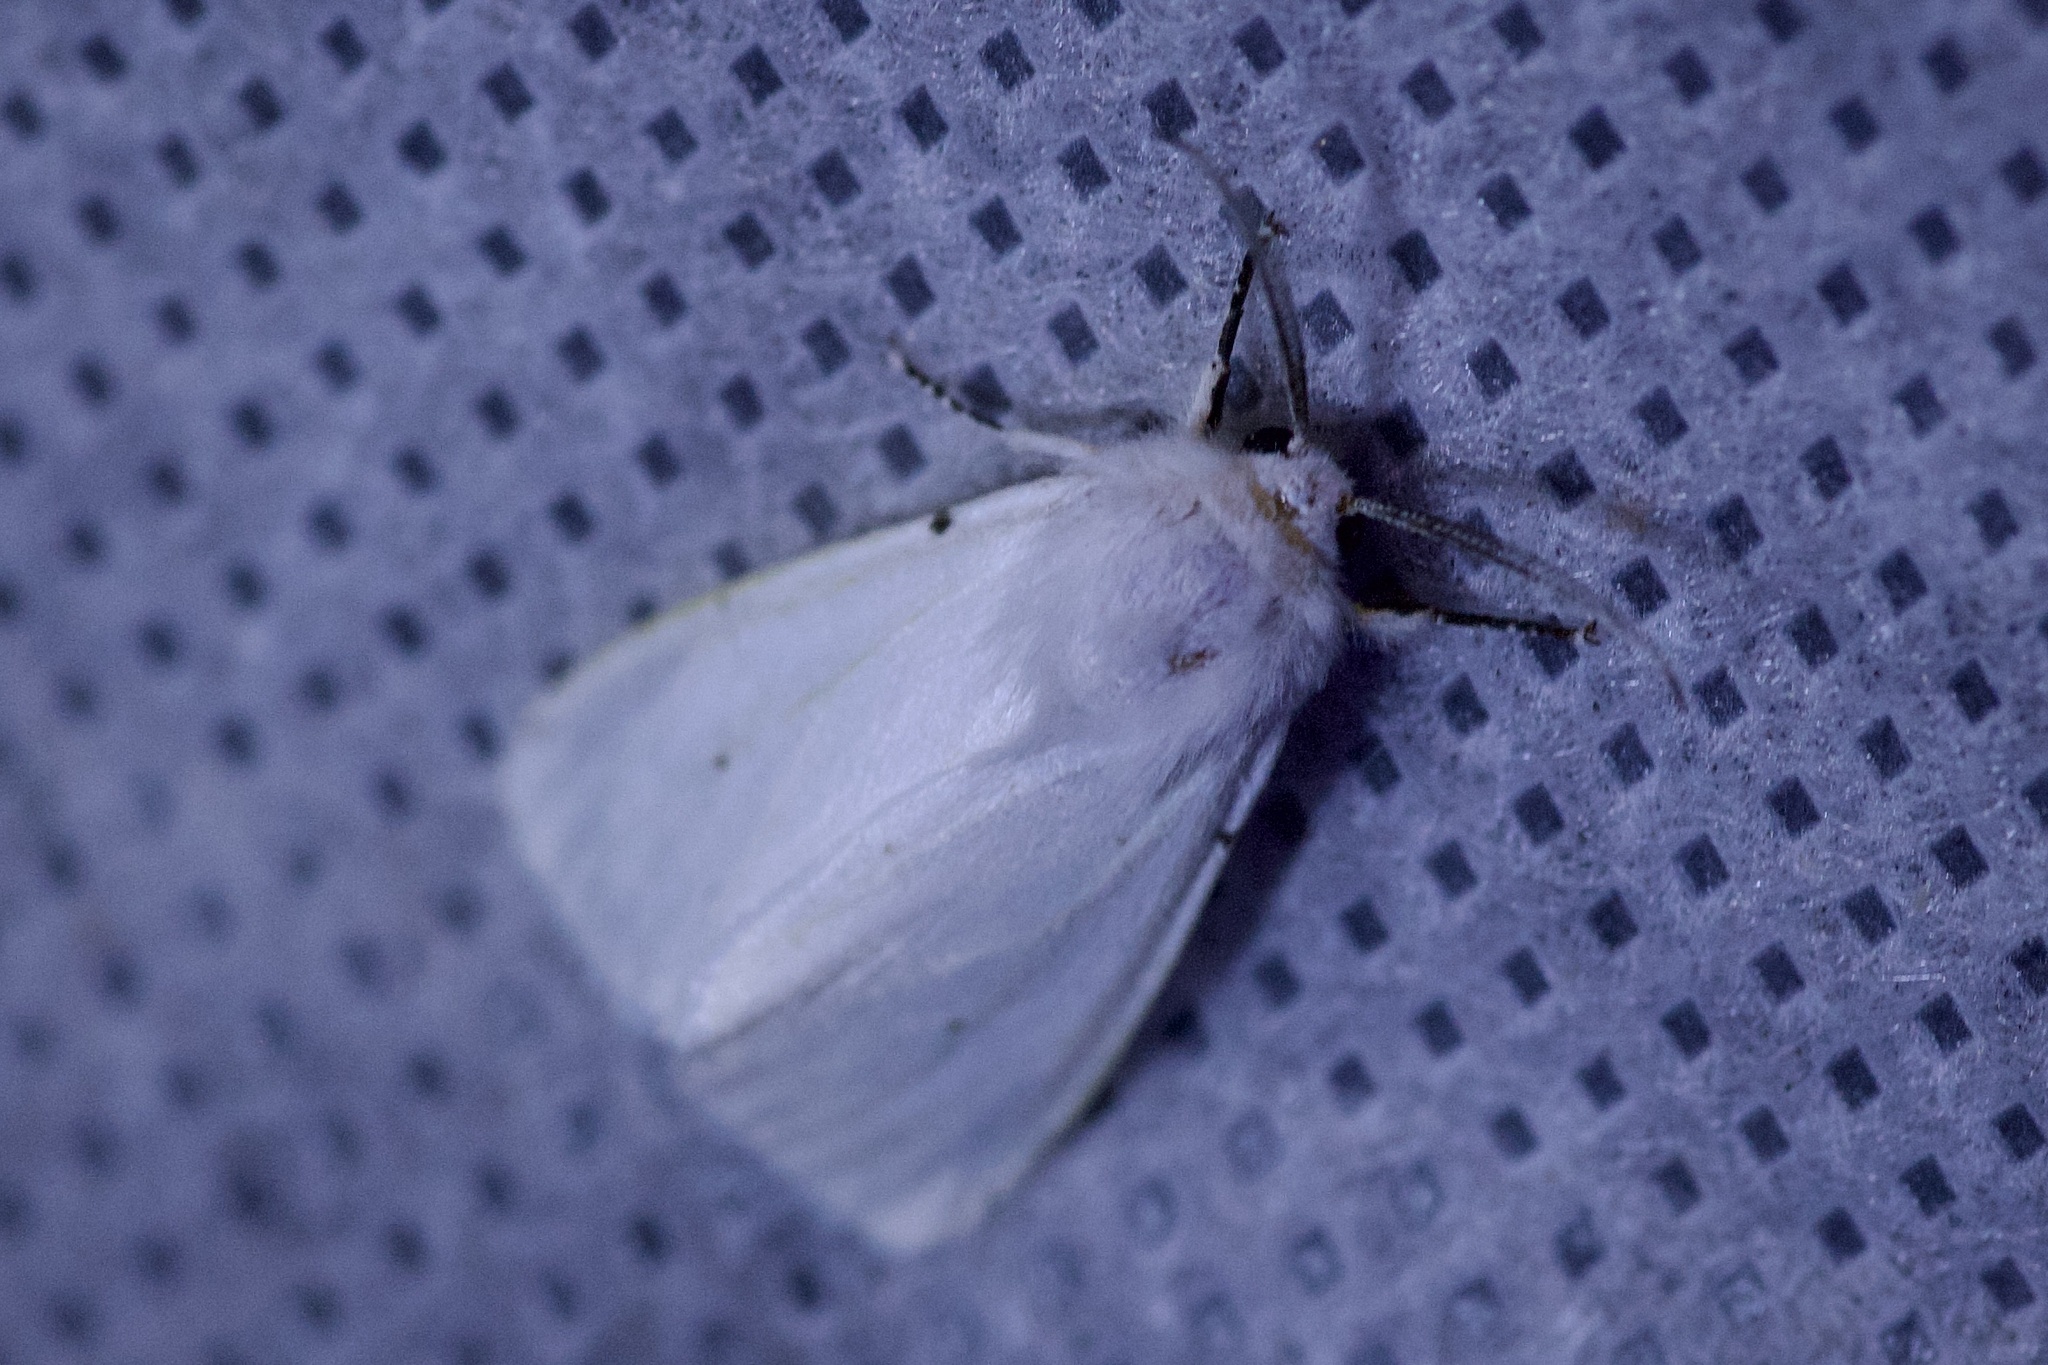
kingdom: Animalia
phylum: Arthropoda
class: Insecta
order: Lepidoptera
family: Erebidae
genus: Hyphantria
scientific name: Hyphantria cunea
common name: American white moth
